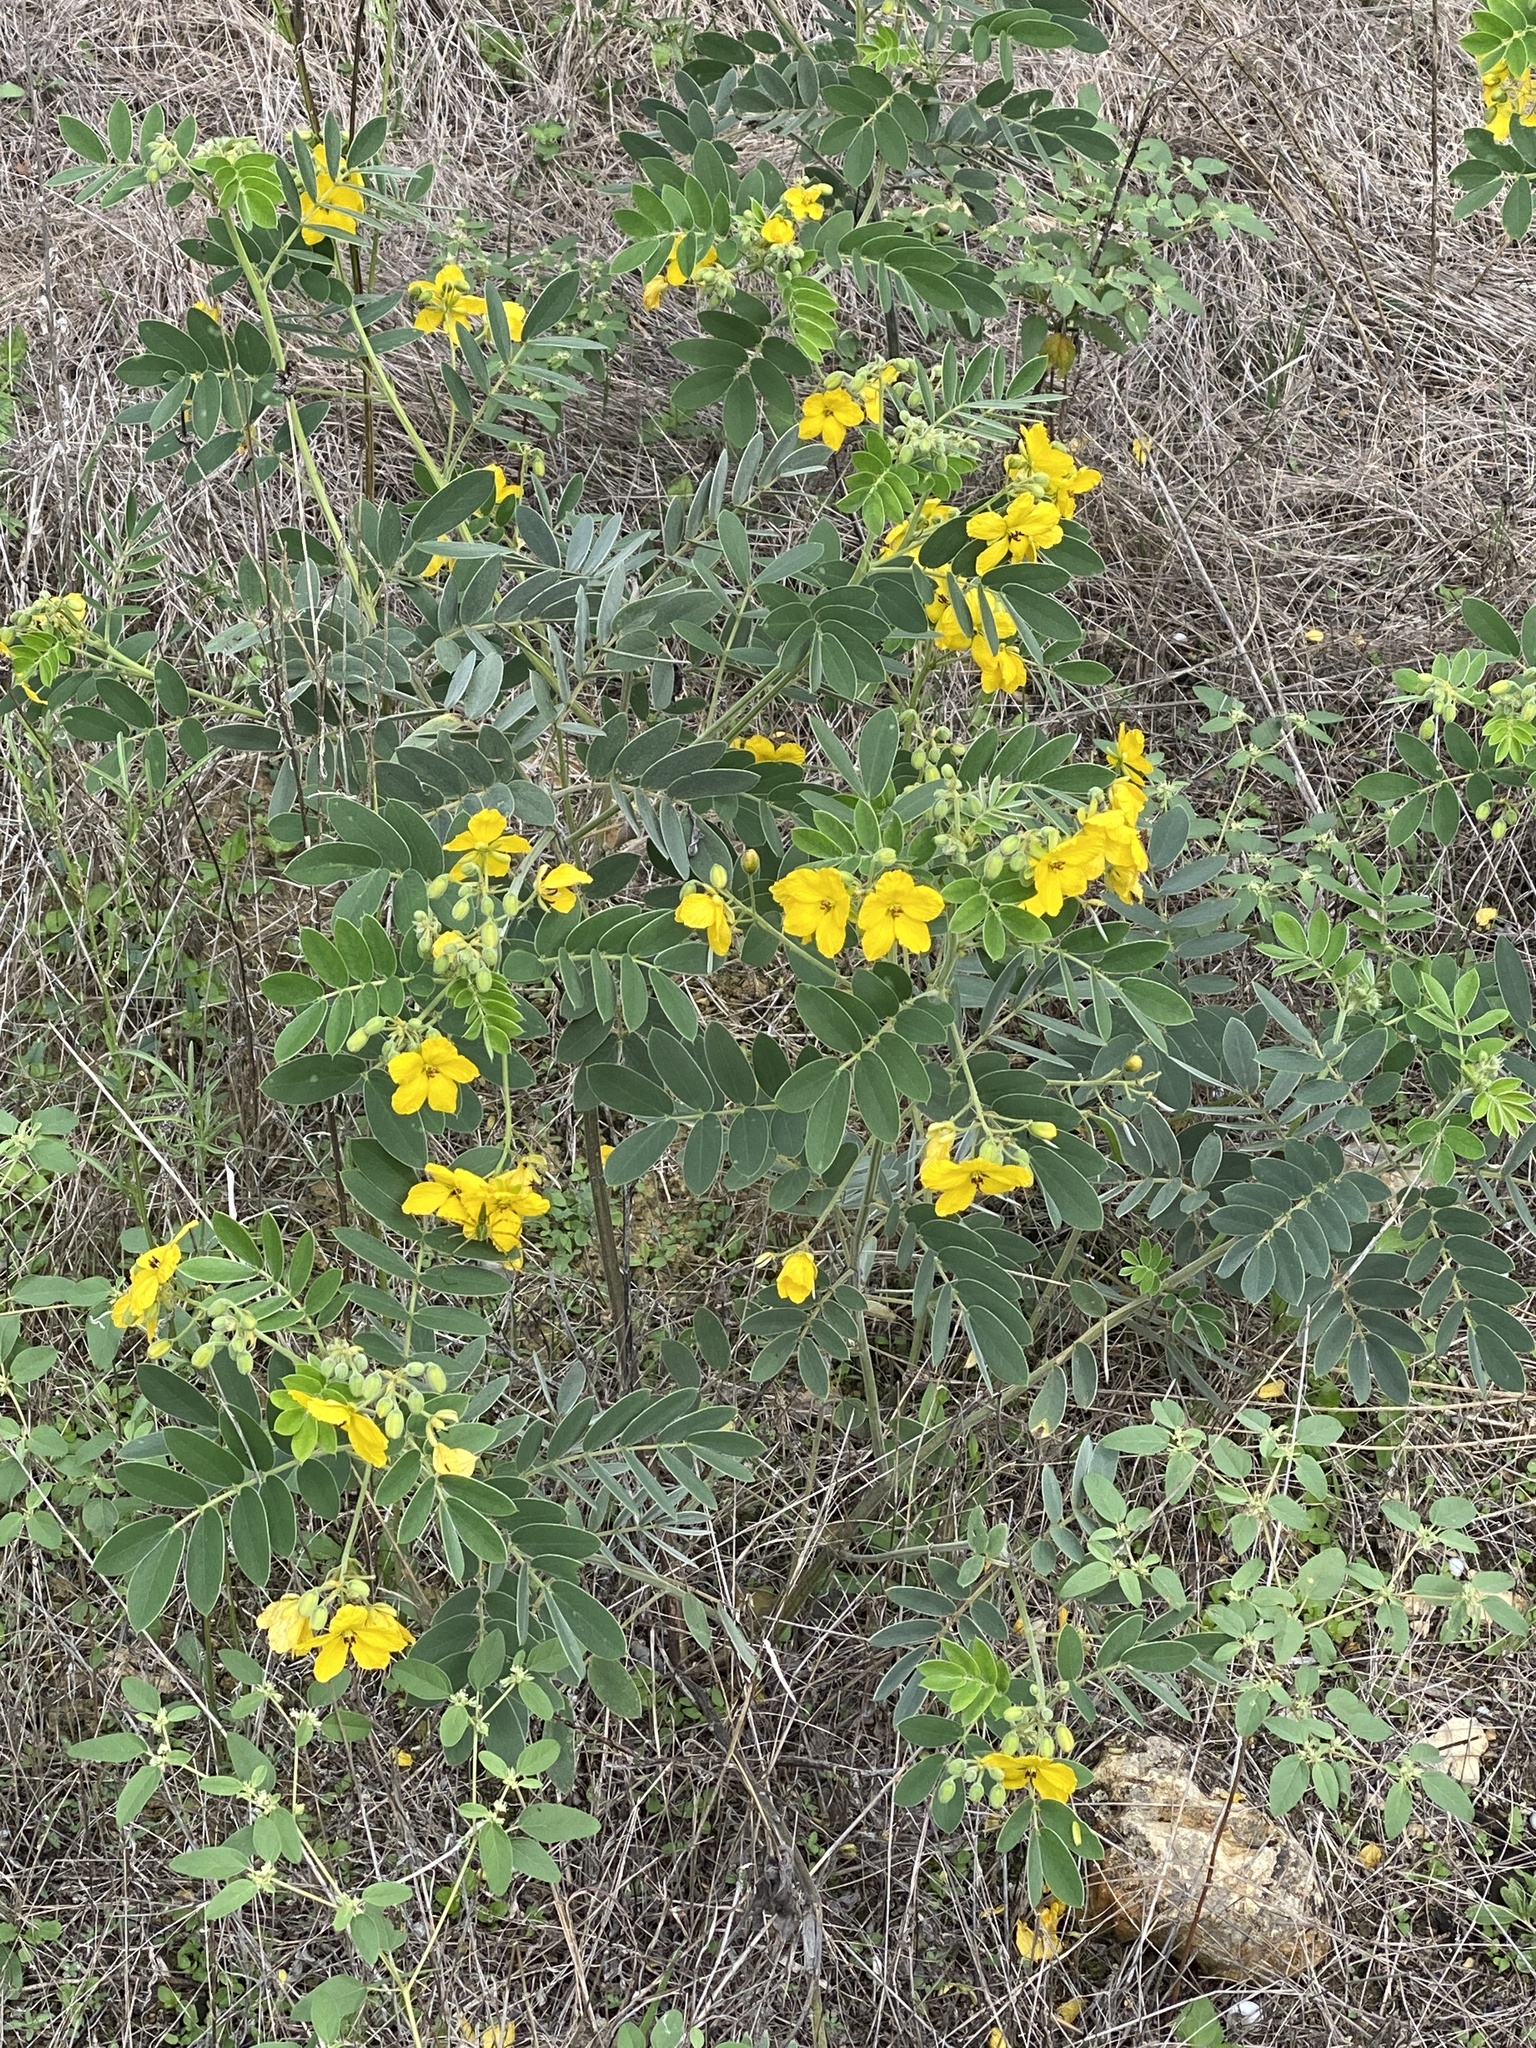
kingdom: Plantae
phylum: Tracheophyta
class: Magnoliopsida
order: Fabales
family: Fabaceae
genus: Senna
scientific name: Senna lindheimeriana
